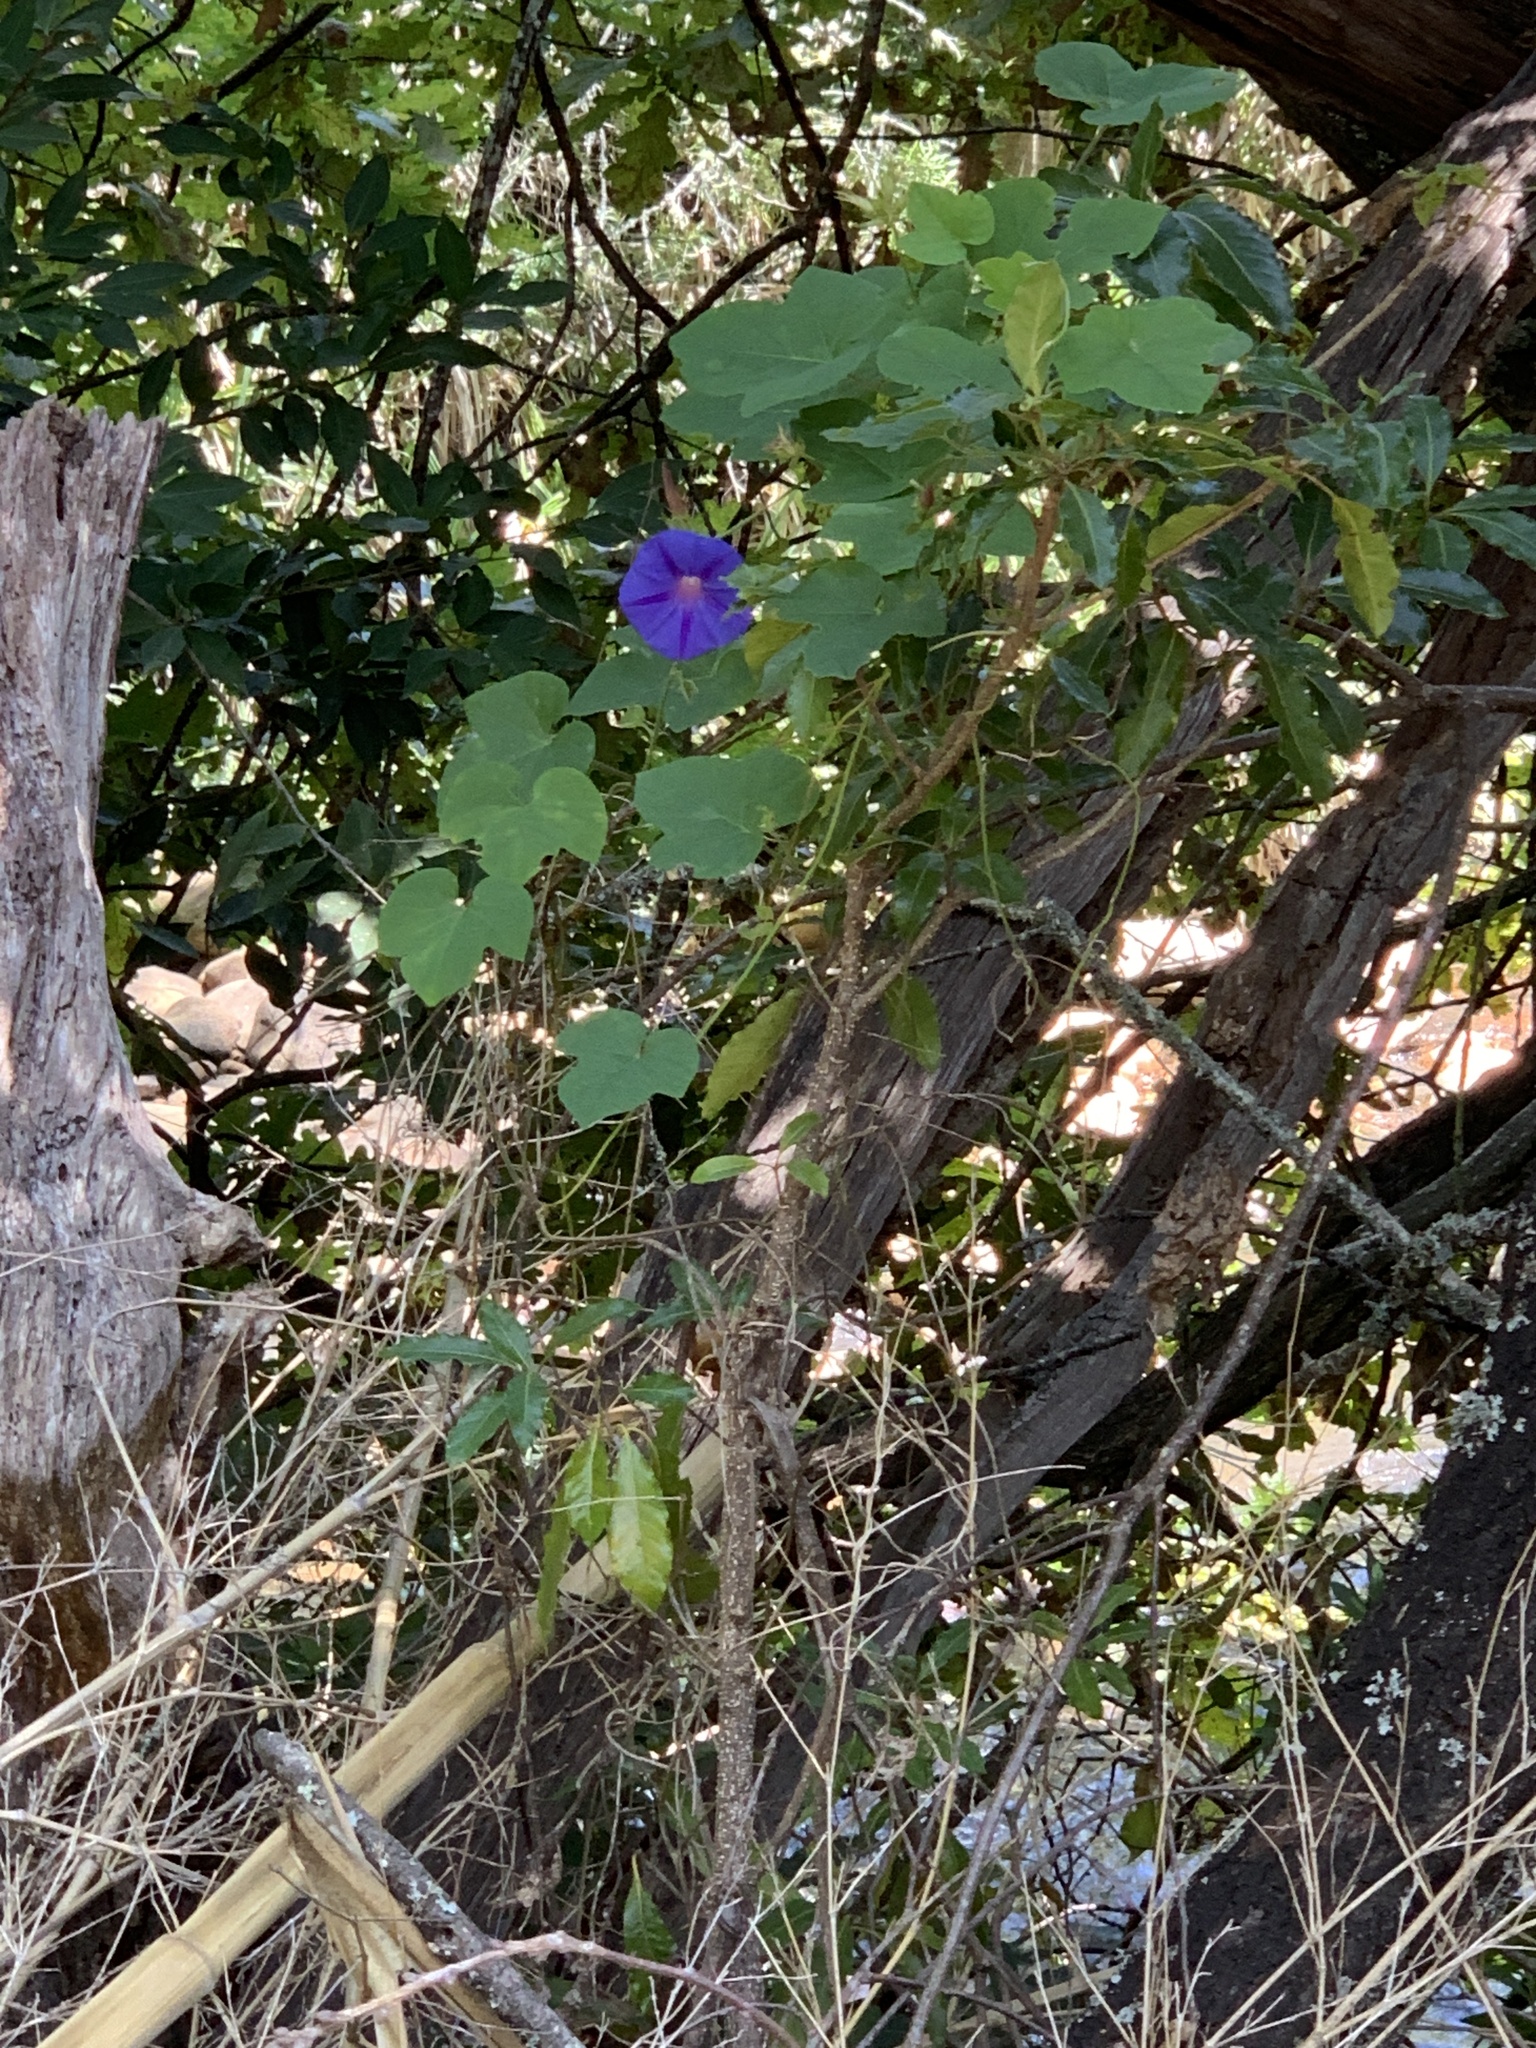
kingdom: Plantae
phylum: Tracheophyta
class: Magnoliopsida
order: Solanales
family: Convolvulaceae
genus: Ipomoea
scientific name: Ipomoea indica
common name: Blue dawnflower
